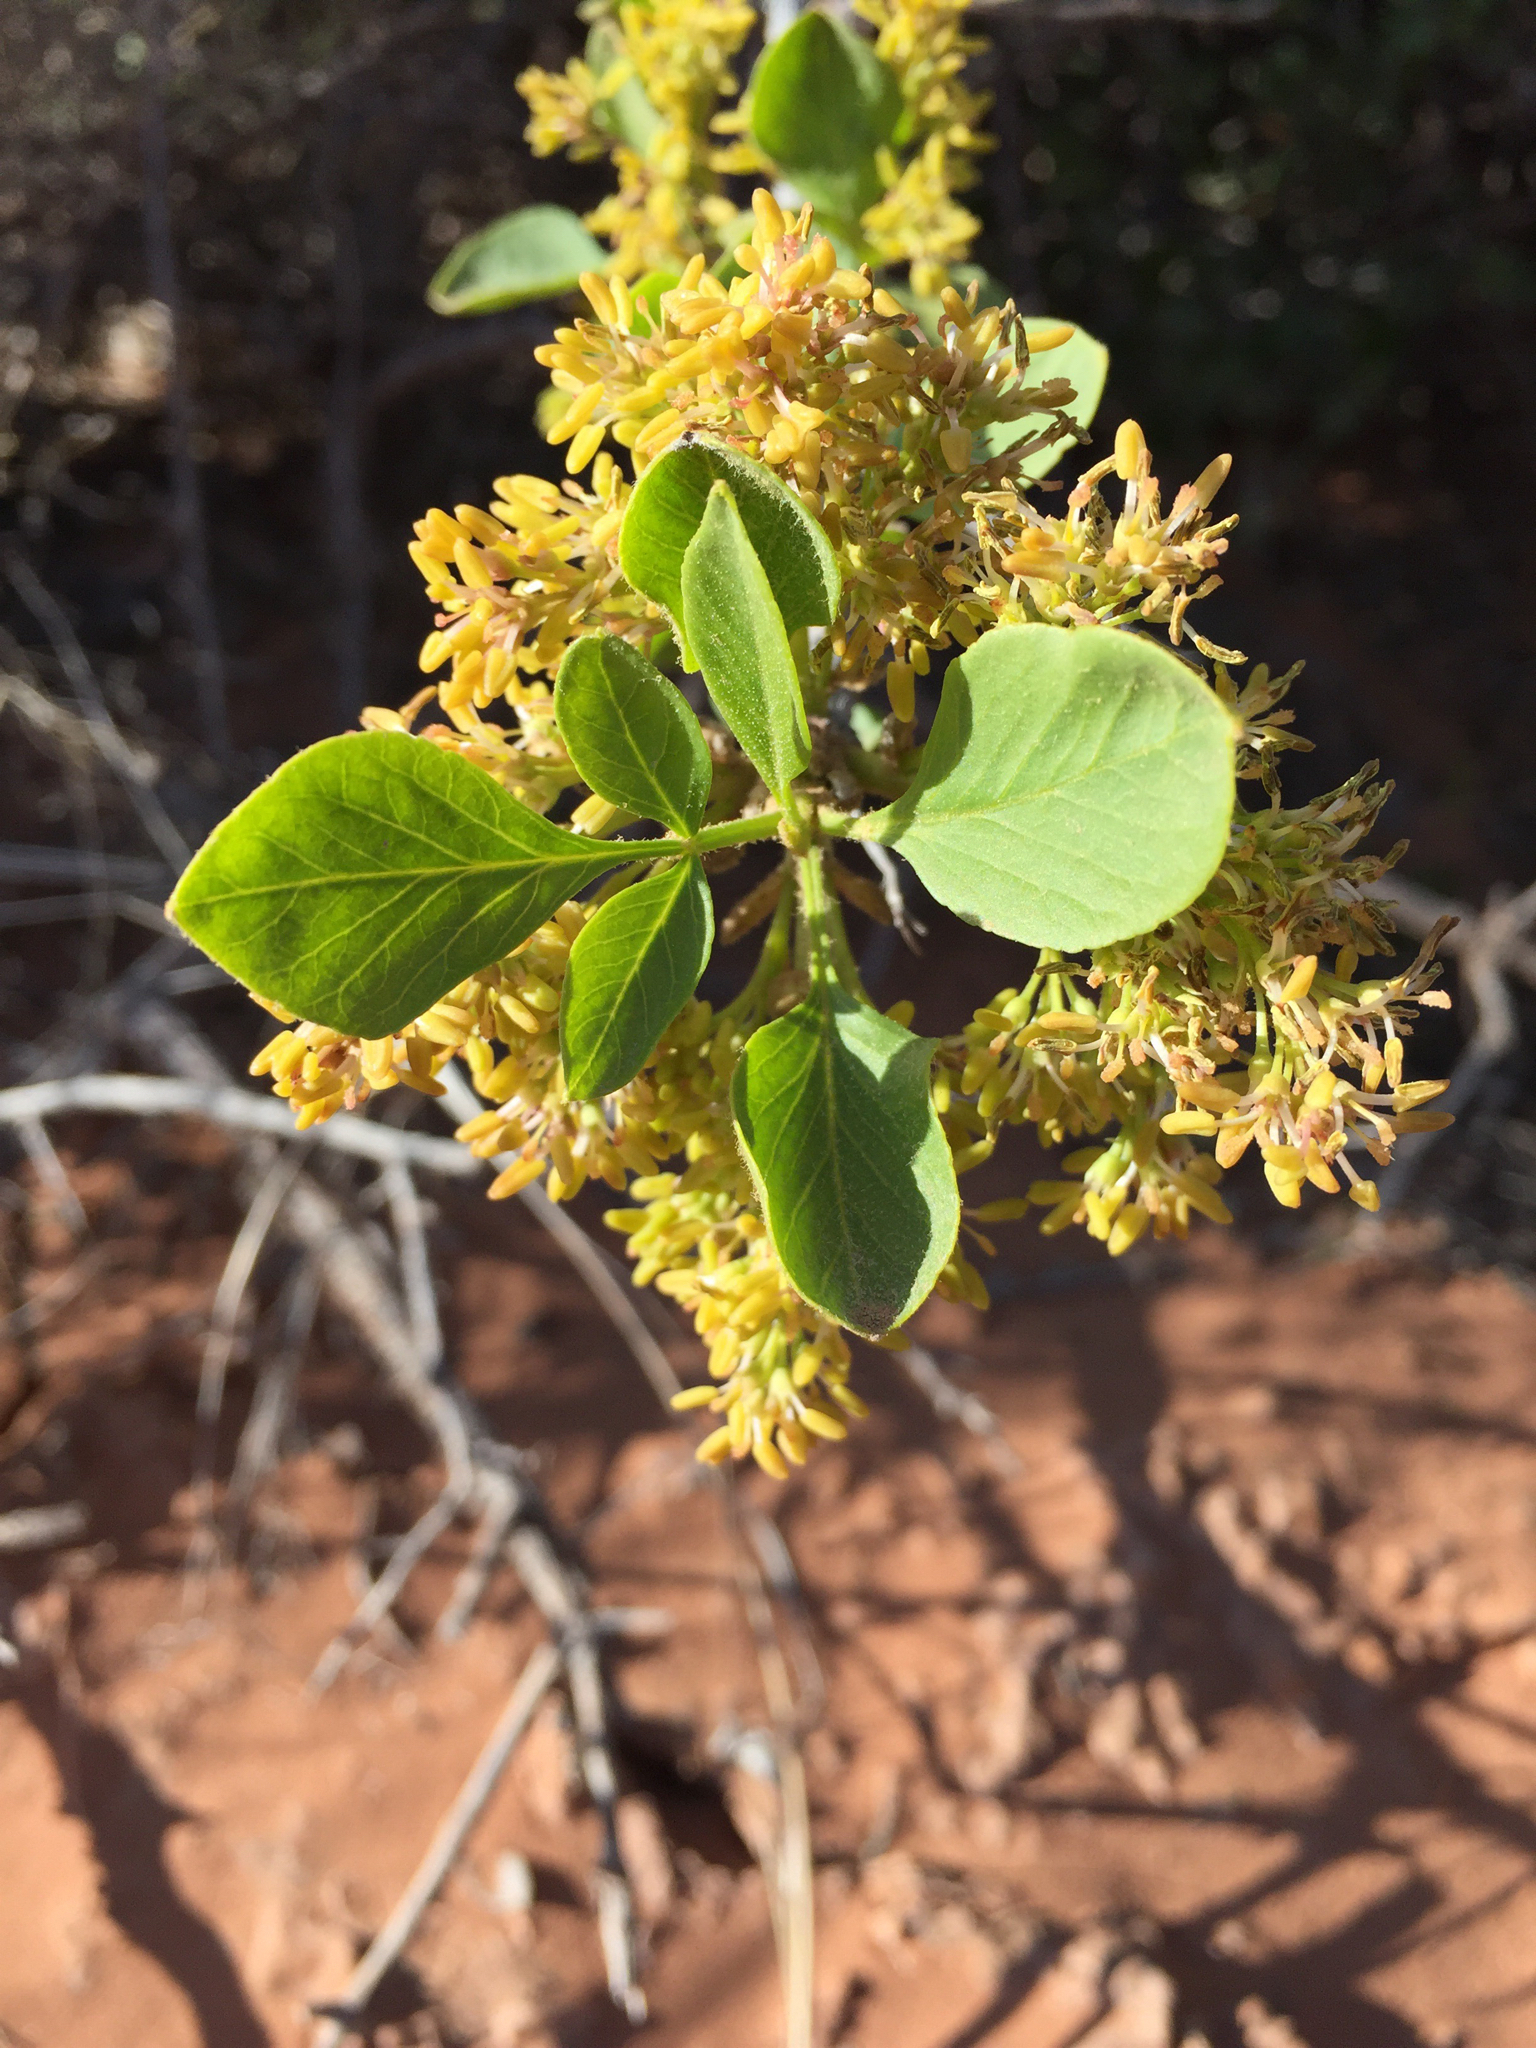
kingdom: Plantae
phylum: Tracheophyta
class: Magnoliopsida
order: Lamiales
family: Oleaceae
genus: Fraxinus
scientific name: Fraxinus anomala
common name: Utah ash
